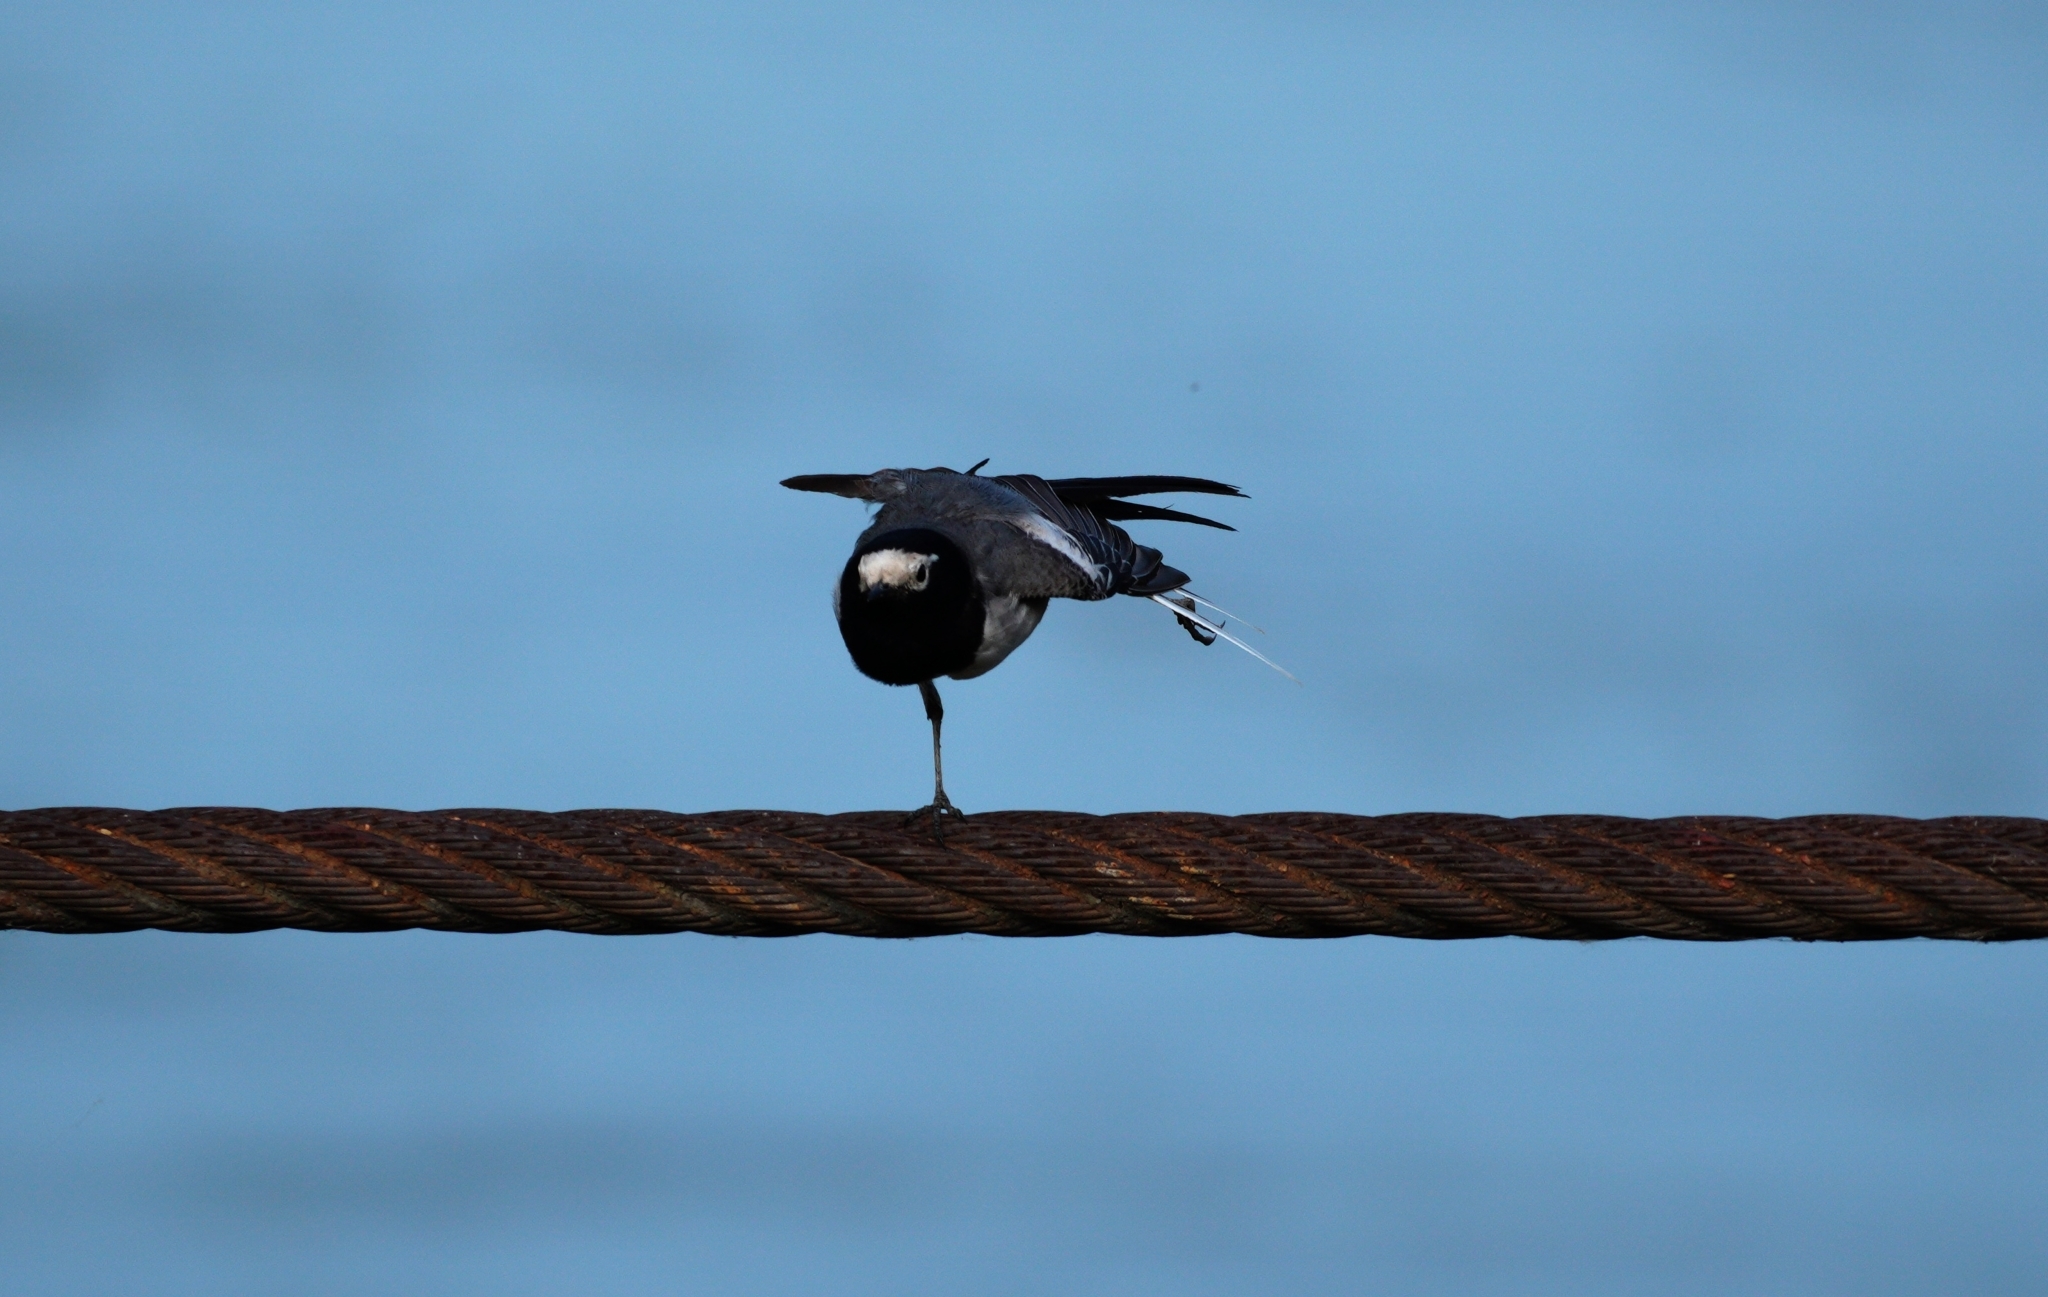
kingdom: Animalia
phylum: Chordata
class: Aves
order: Passeriformes
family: Motacillidae
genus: Motacilla
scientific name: Motacilla alba
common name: White wagtail
